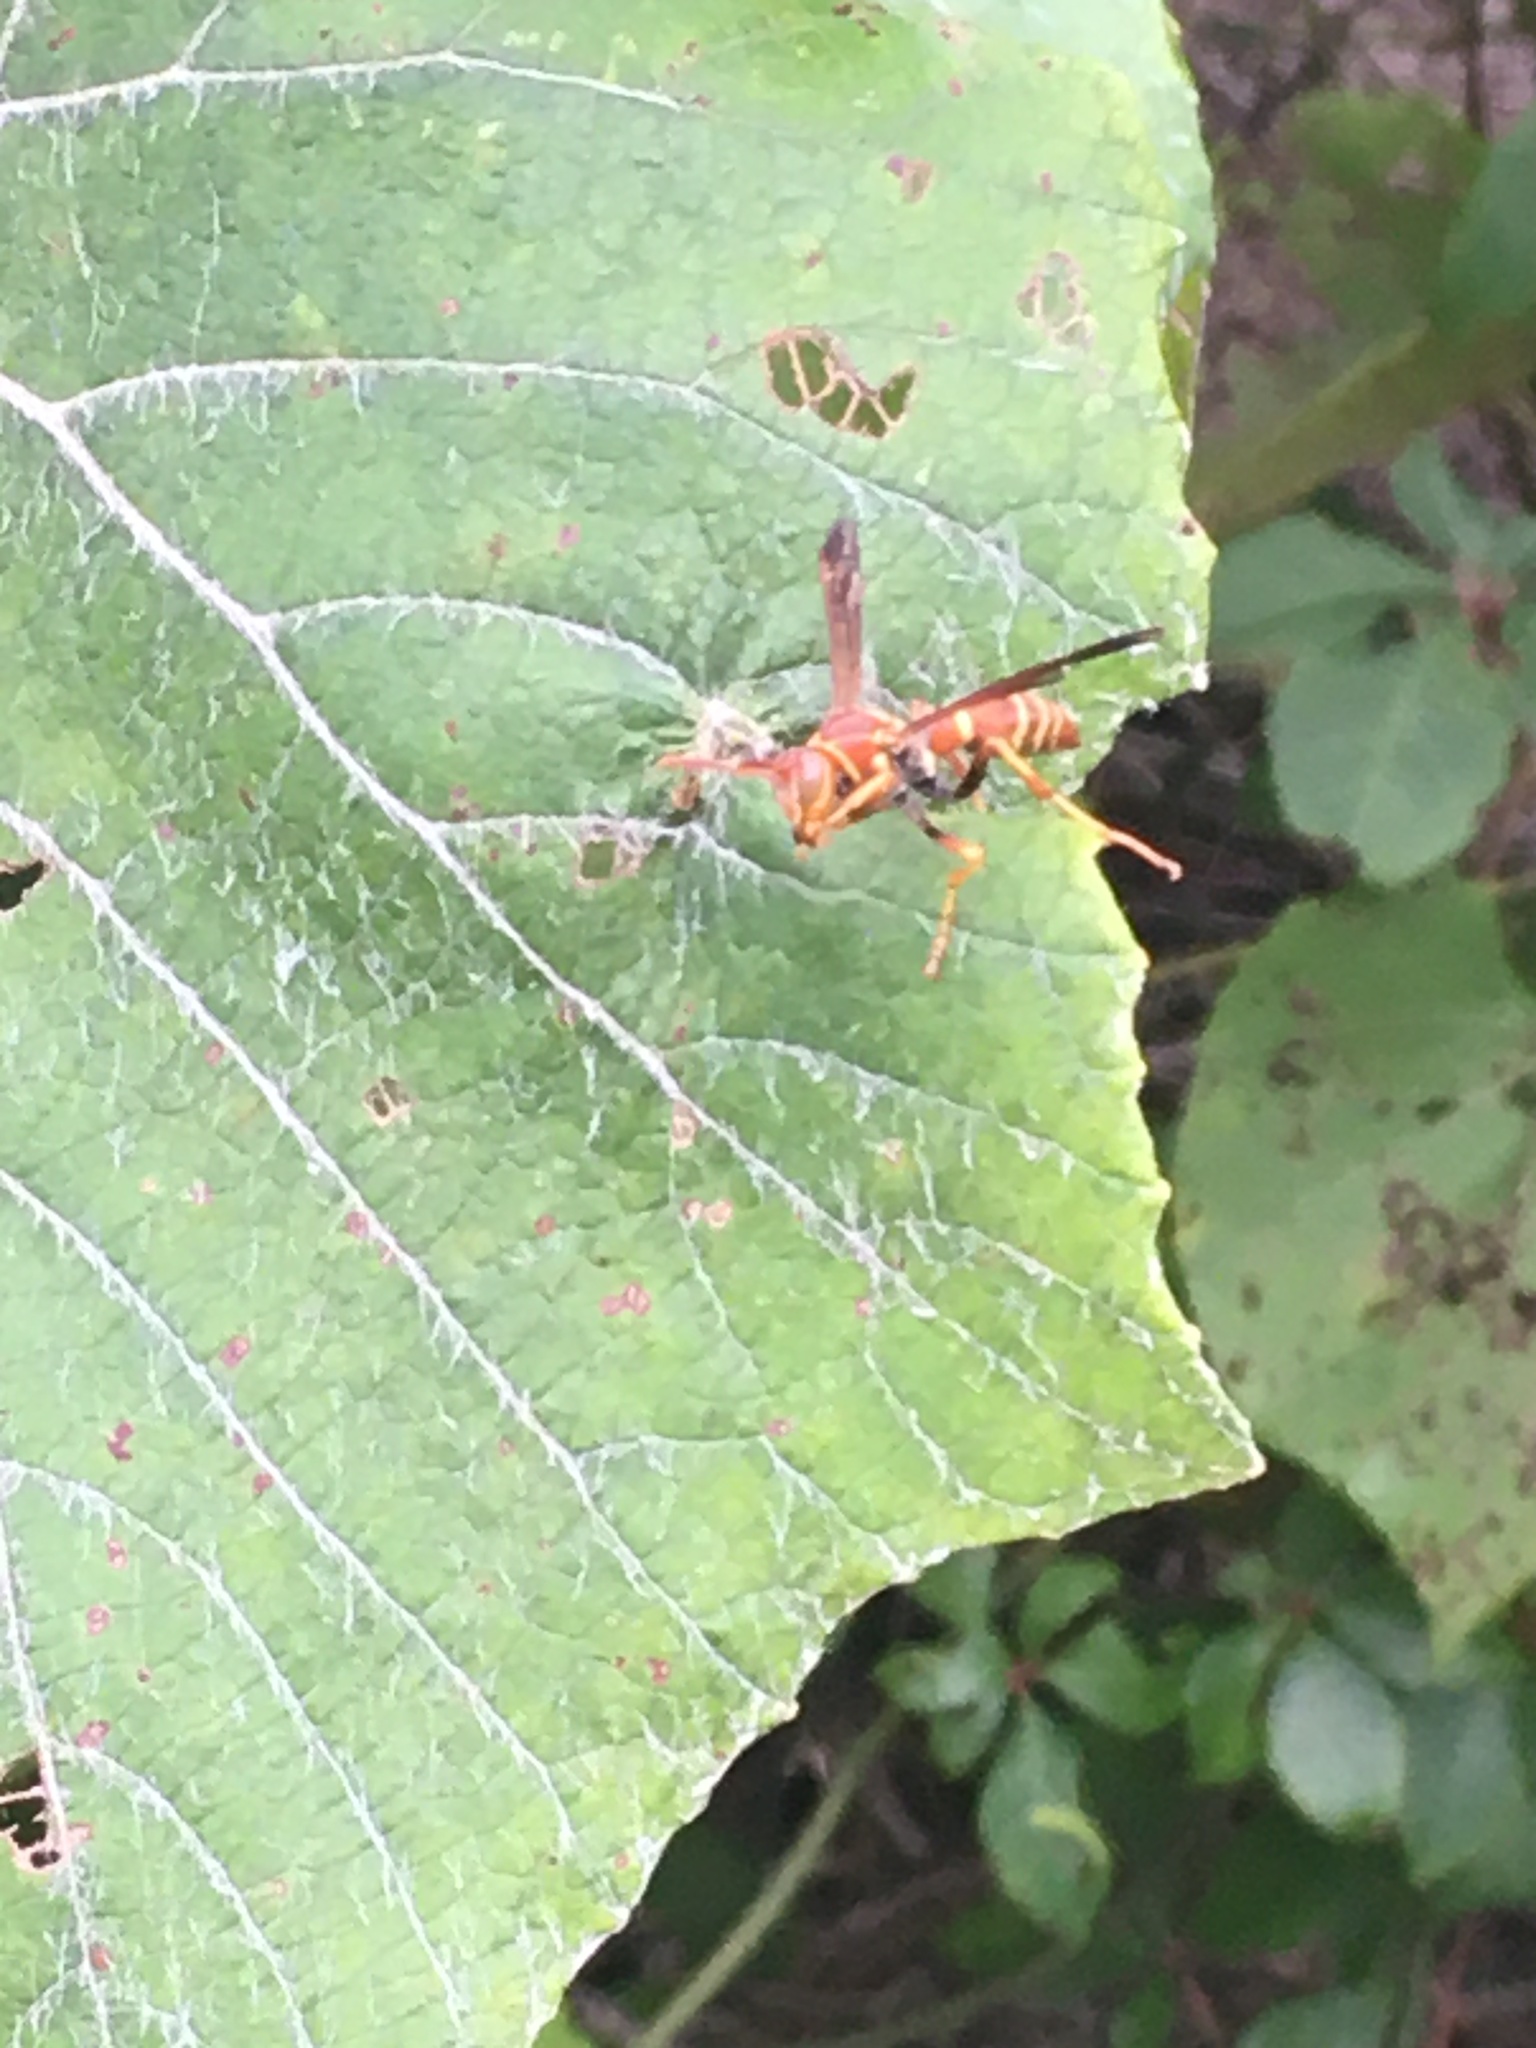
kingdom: Animalia
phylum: Arthropoda
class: Insecta
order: Hymenoptera
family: Eumenidae
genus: Polistes
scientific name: Polistes dorsalis
